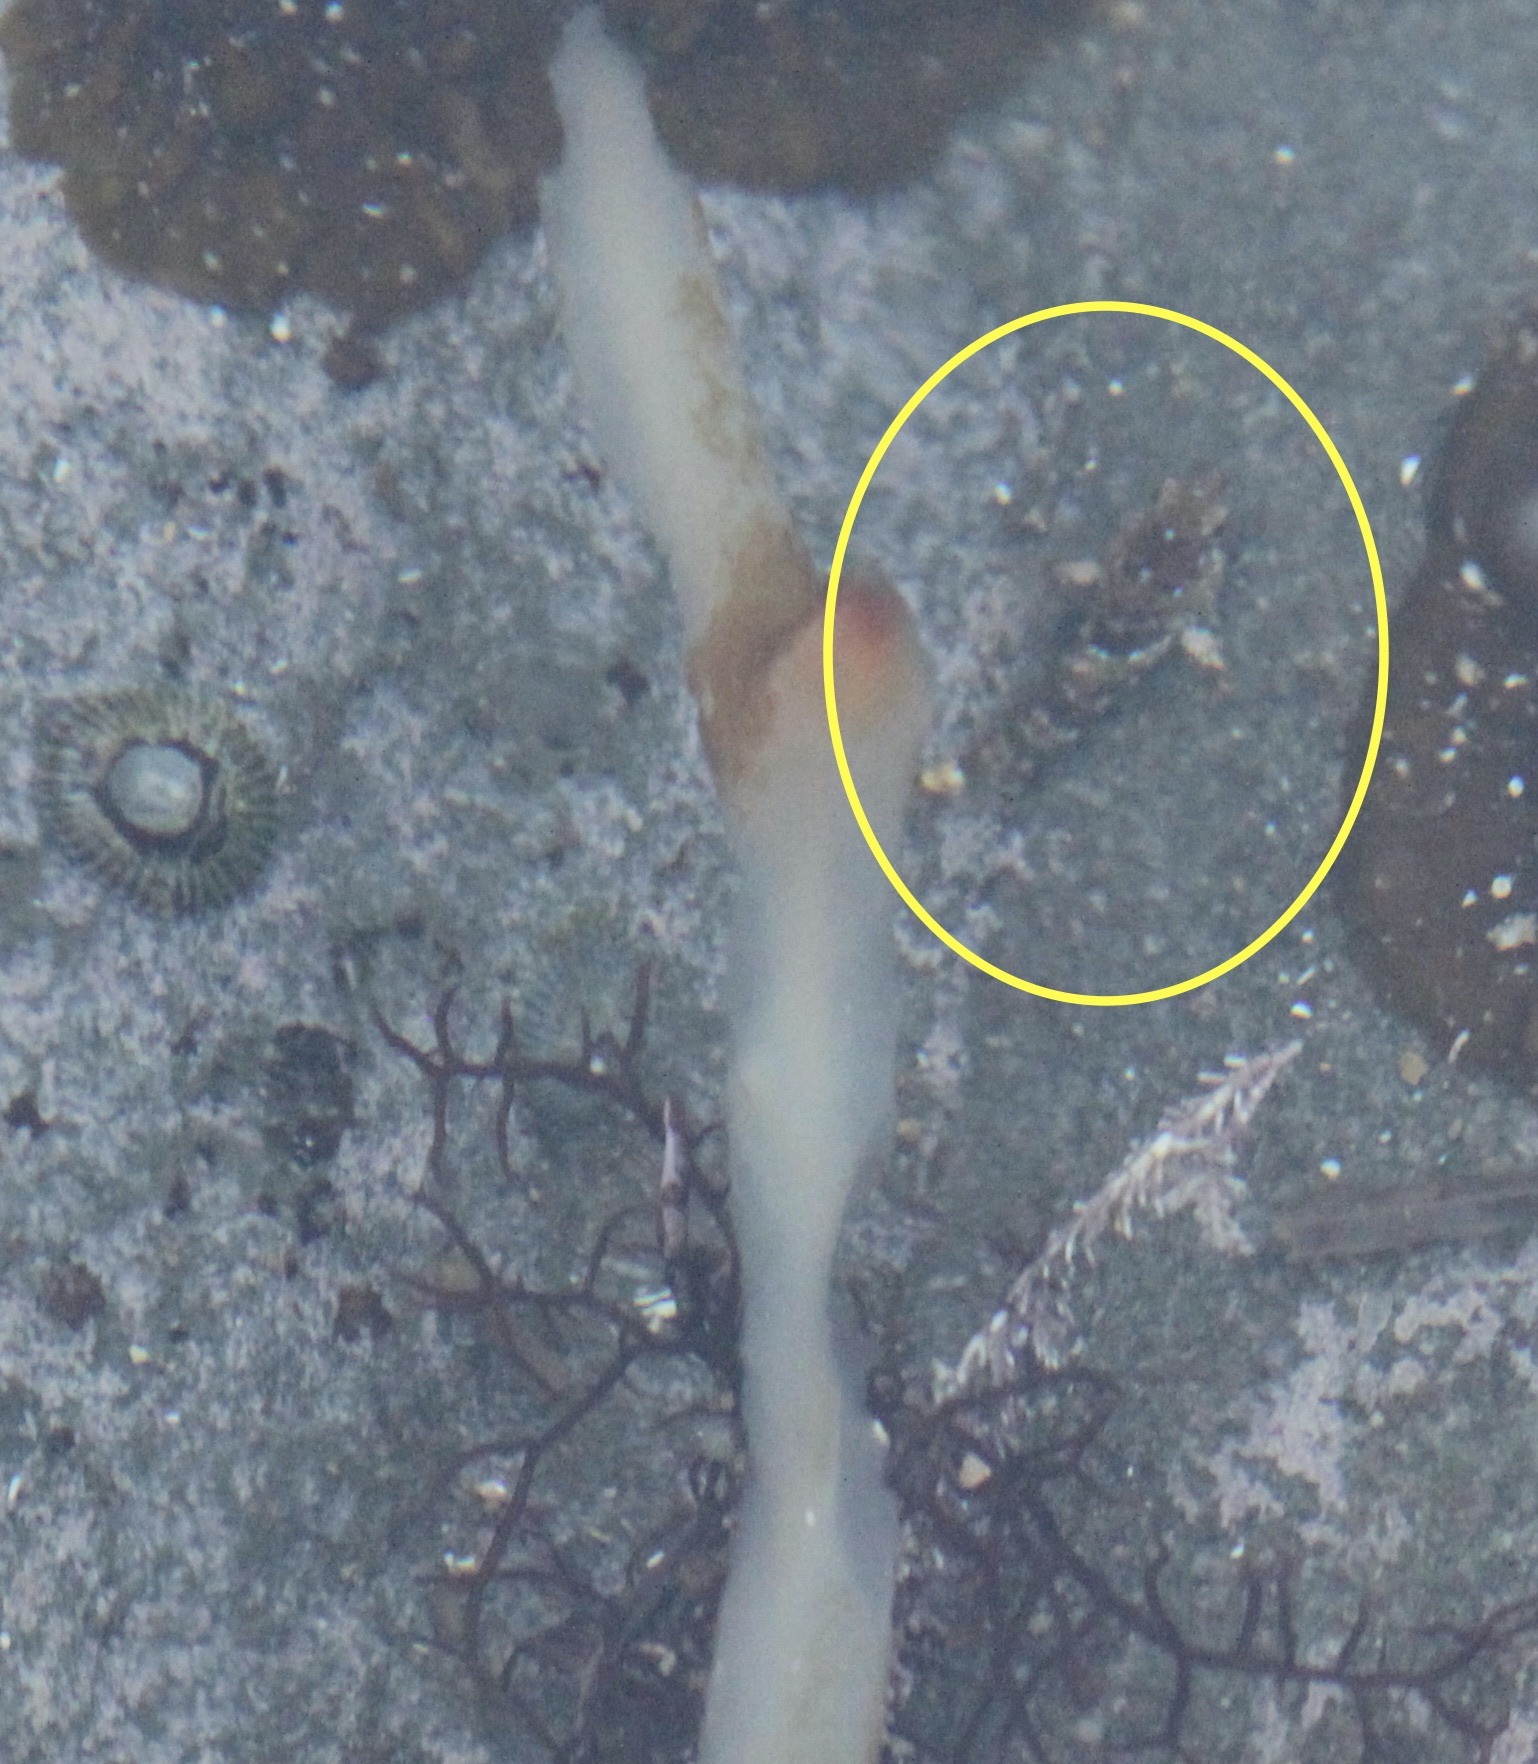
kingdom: Animalia
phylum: Chordata
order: Scorpaeniformes
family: Cottidae
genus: Clinocottus
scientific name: Clinocottus analis
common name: Woolly sculpin
